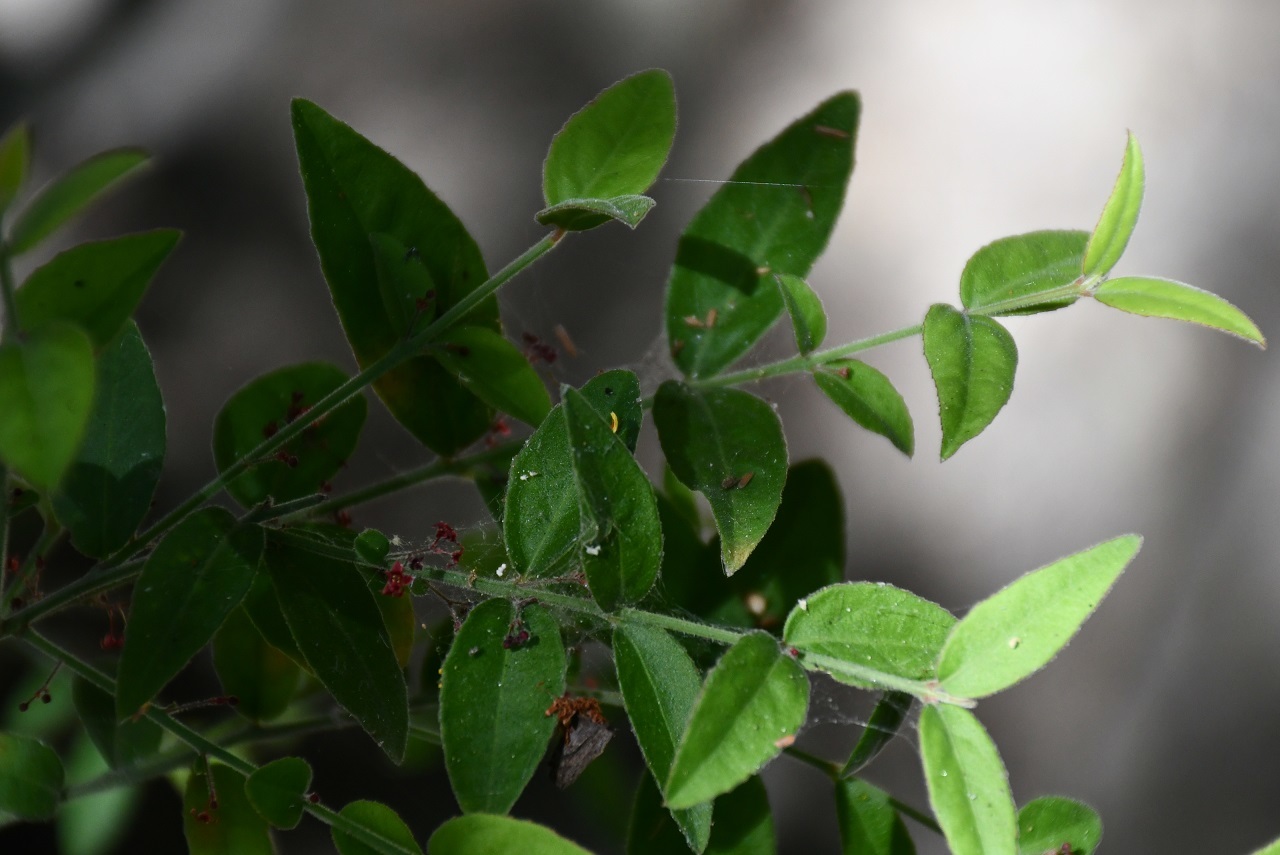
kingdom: Plantae
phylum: Tracheophyta
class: Magnoliopsida
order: Celastrales
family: Celastraceae
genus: Crossopetalum
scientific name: Crossopetalum uragoga
